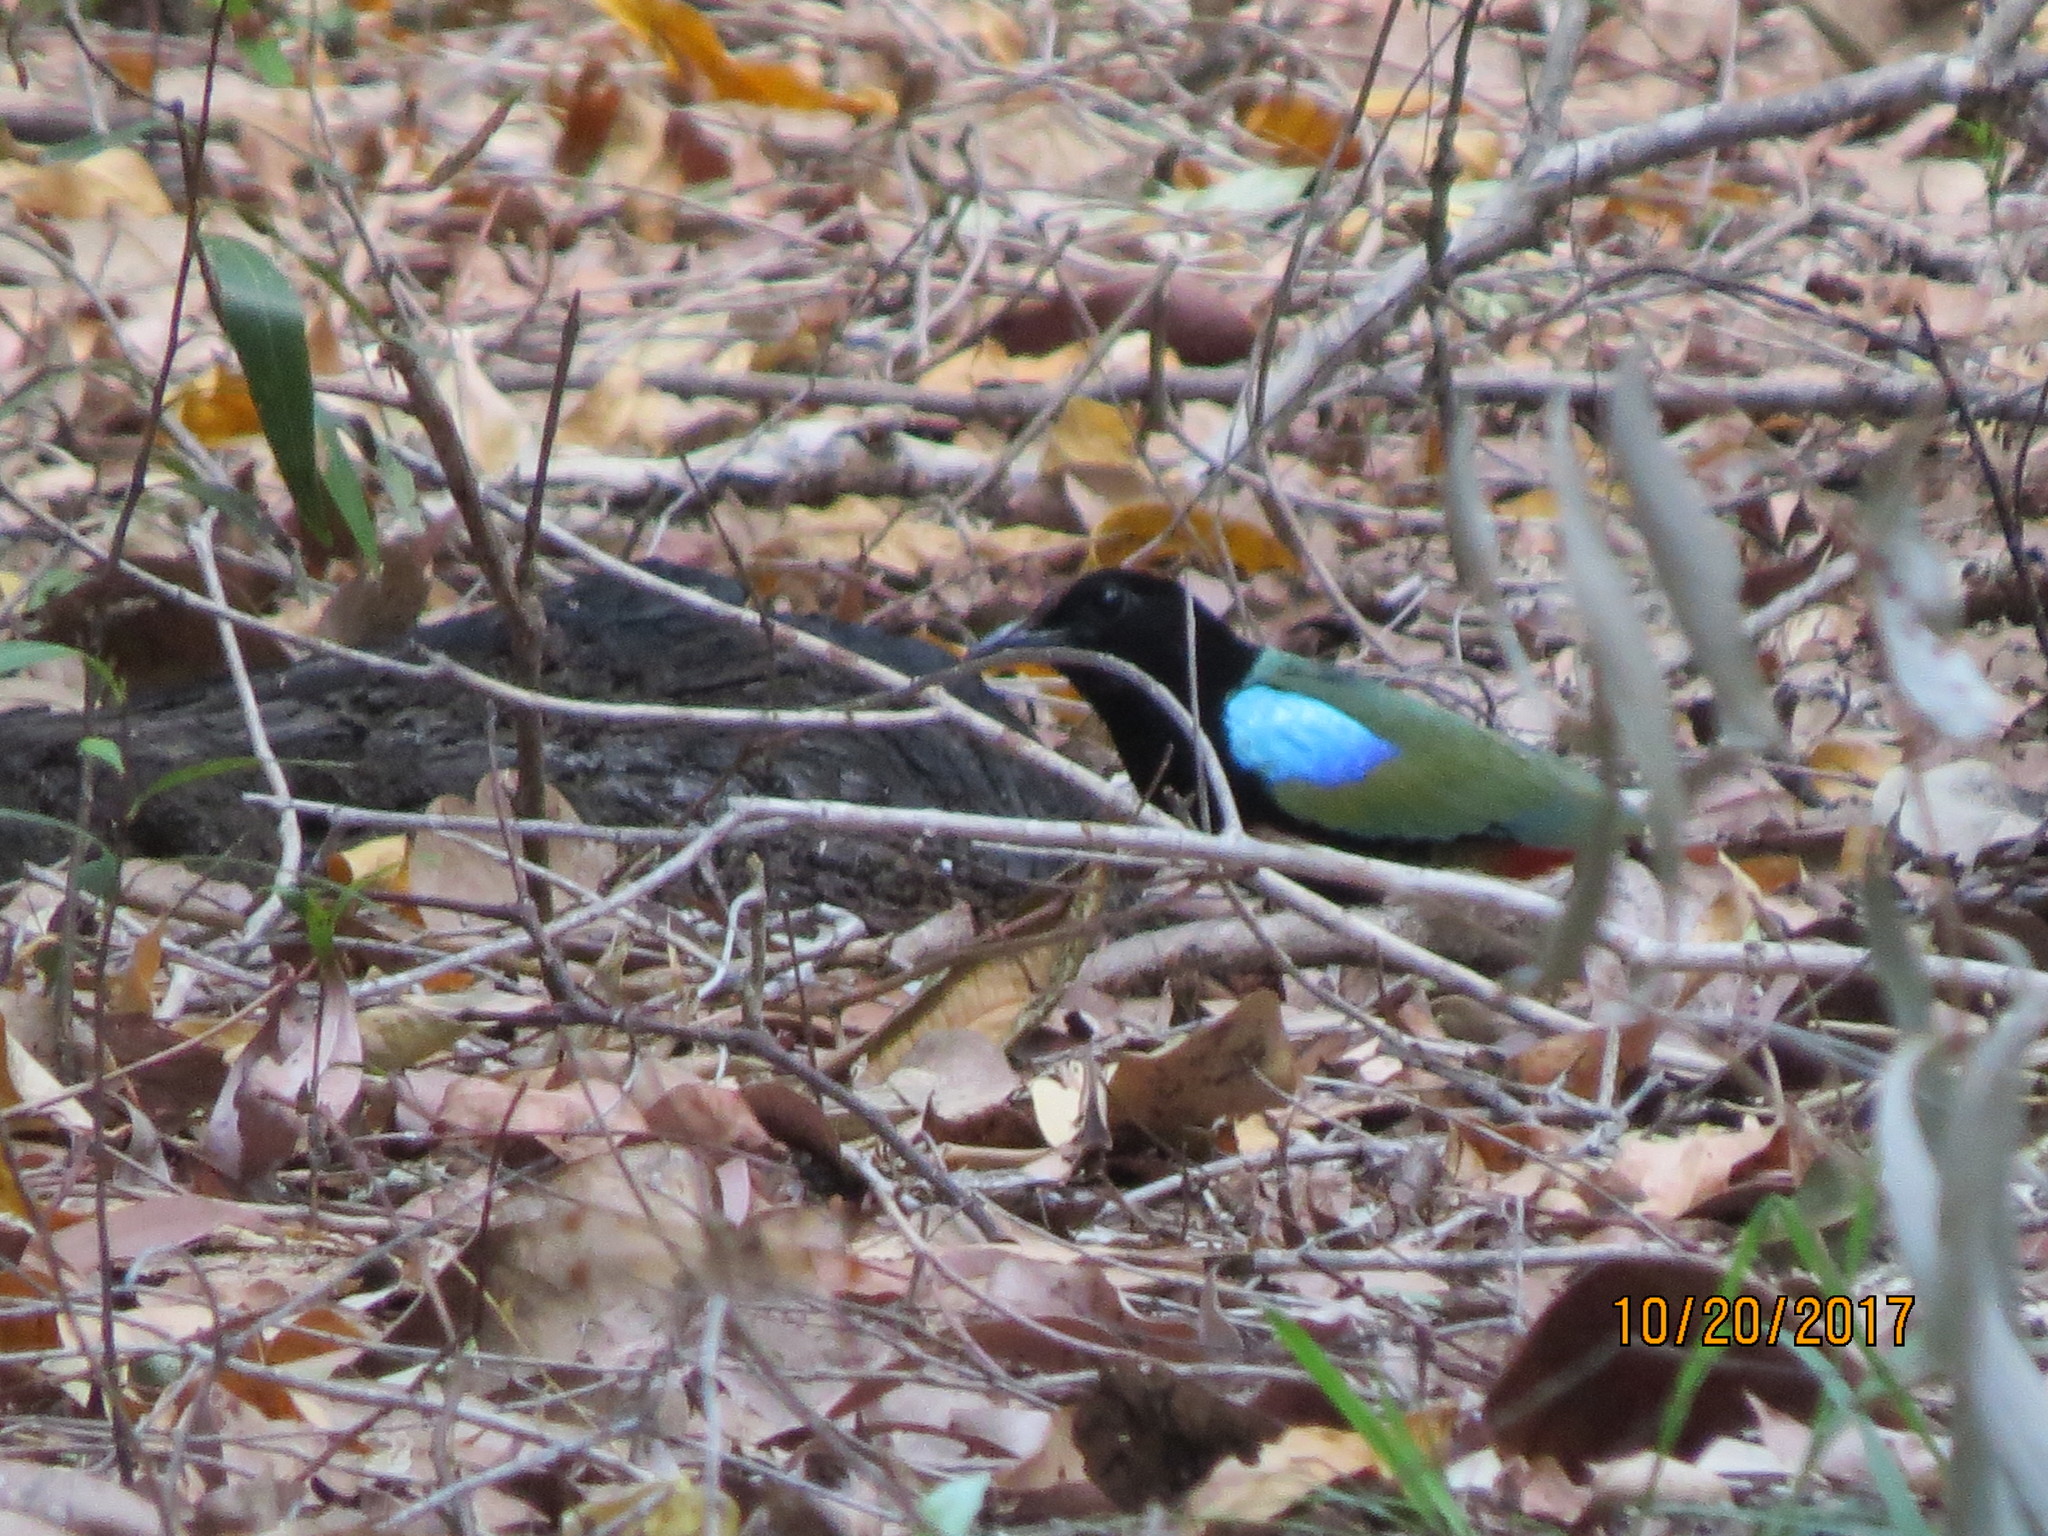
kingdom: Animalia
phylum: Chordata
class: Aves
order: Passeriformes
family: Pittidae
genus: Pitta
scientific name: Pitta iris
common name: Rainbow pitta
